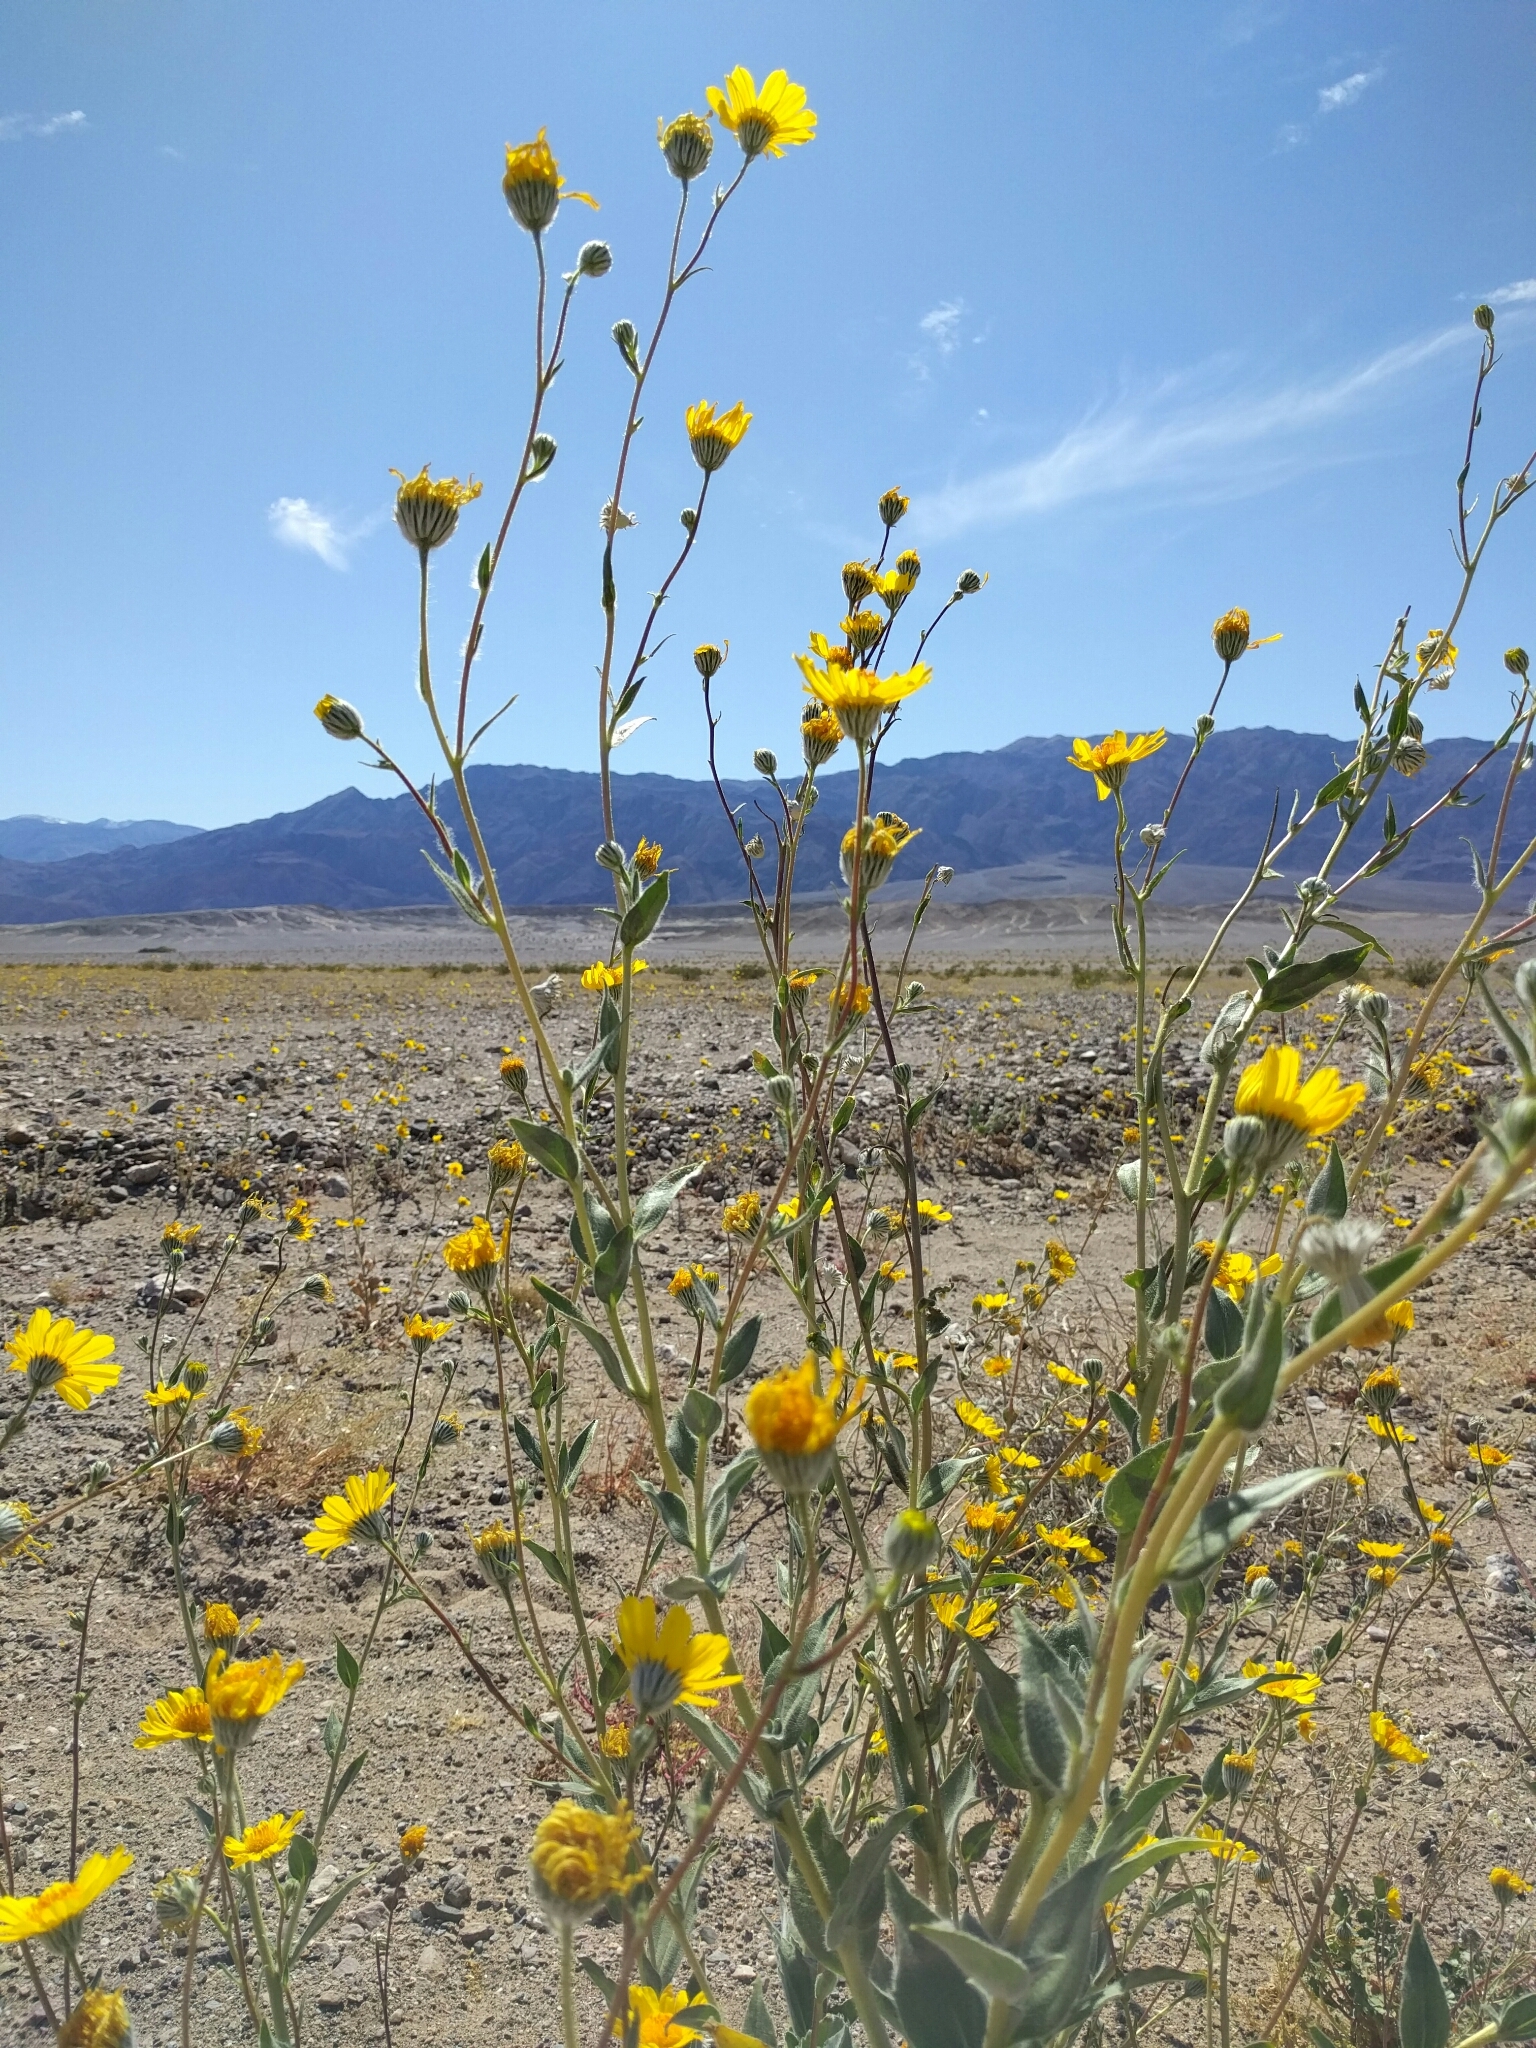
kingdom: Plantae
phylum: Tracheophyta
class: Magnoliopsida
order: Asterales
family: Asteraceae
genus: Geraea
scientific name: Geraea canescens
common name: Desert-gold
